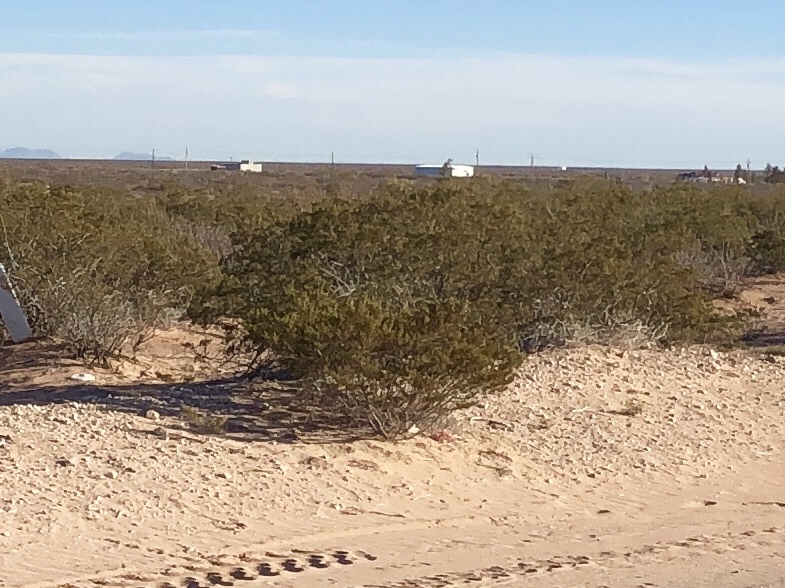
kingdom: Plantae
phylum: Tracheophyta
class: Magnoliopsida
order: Zygophyllales
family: Zygophyllaceae
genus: Larrea
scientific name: Larrea tridentata
